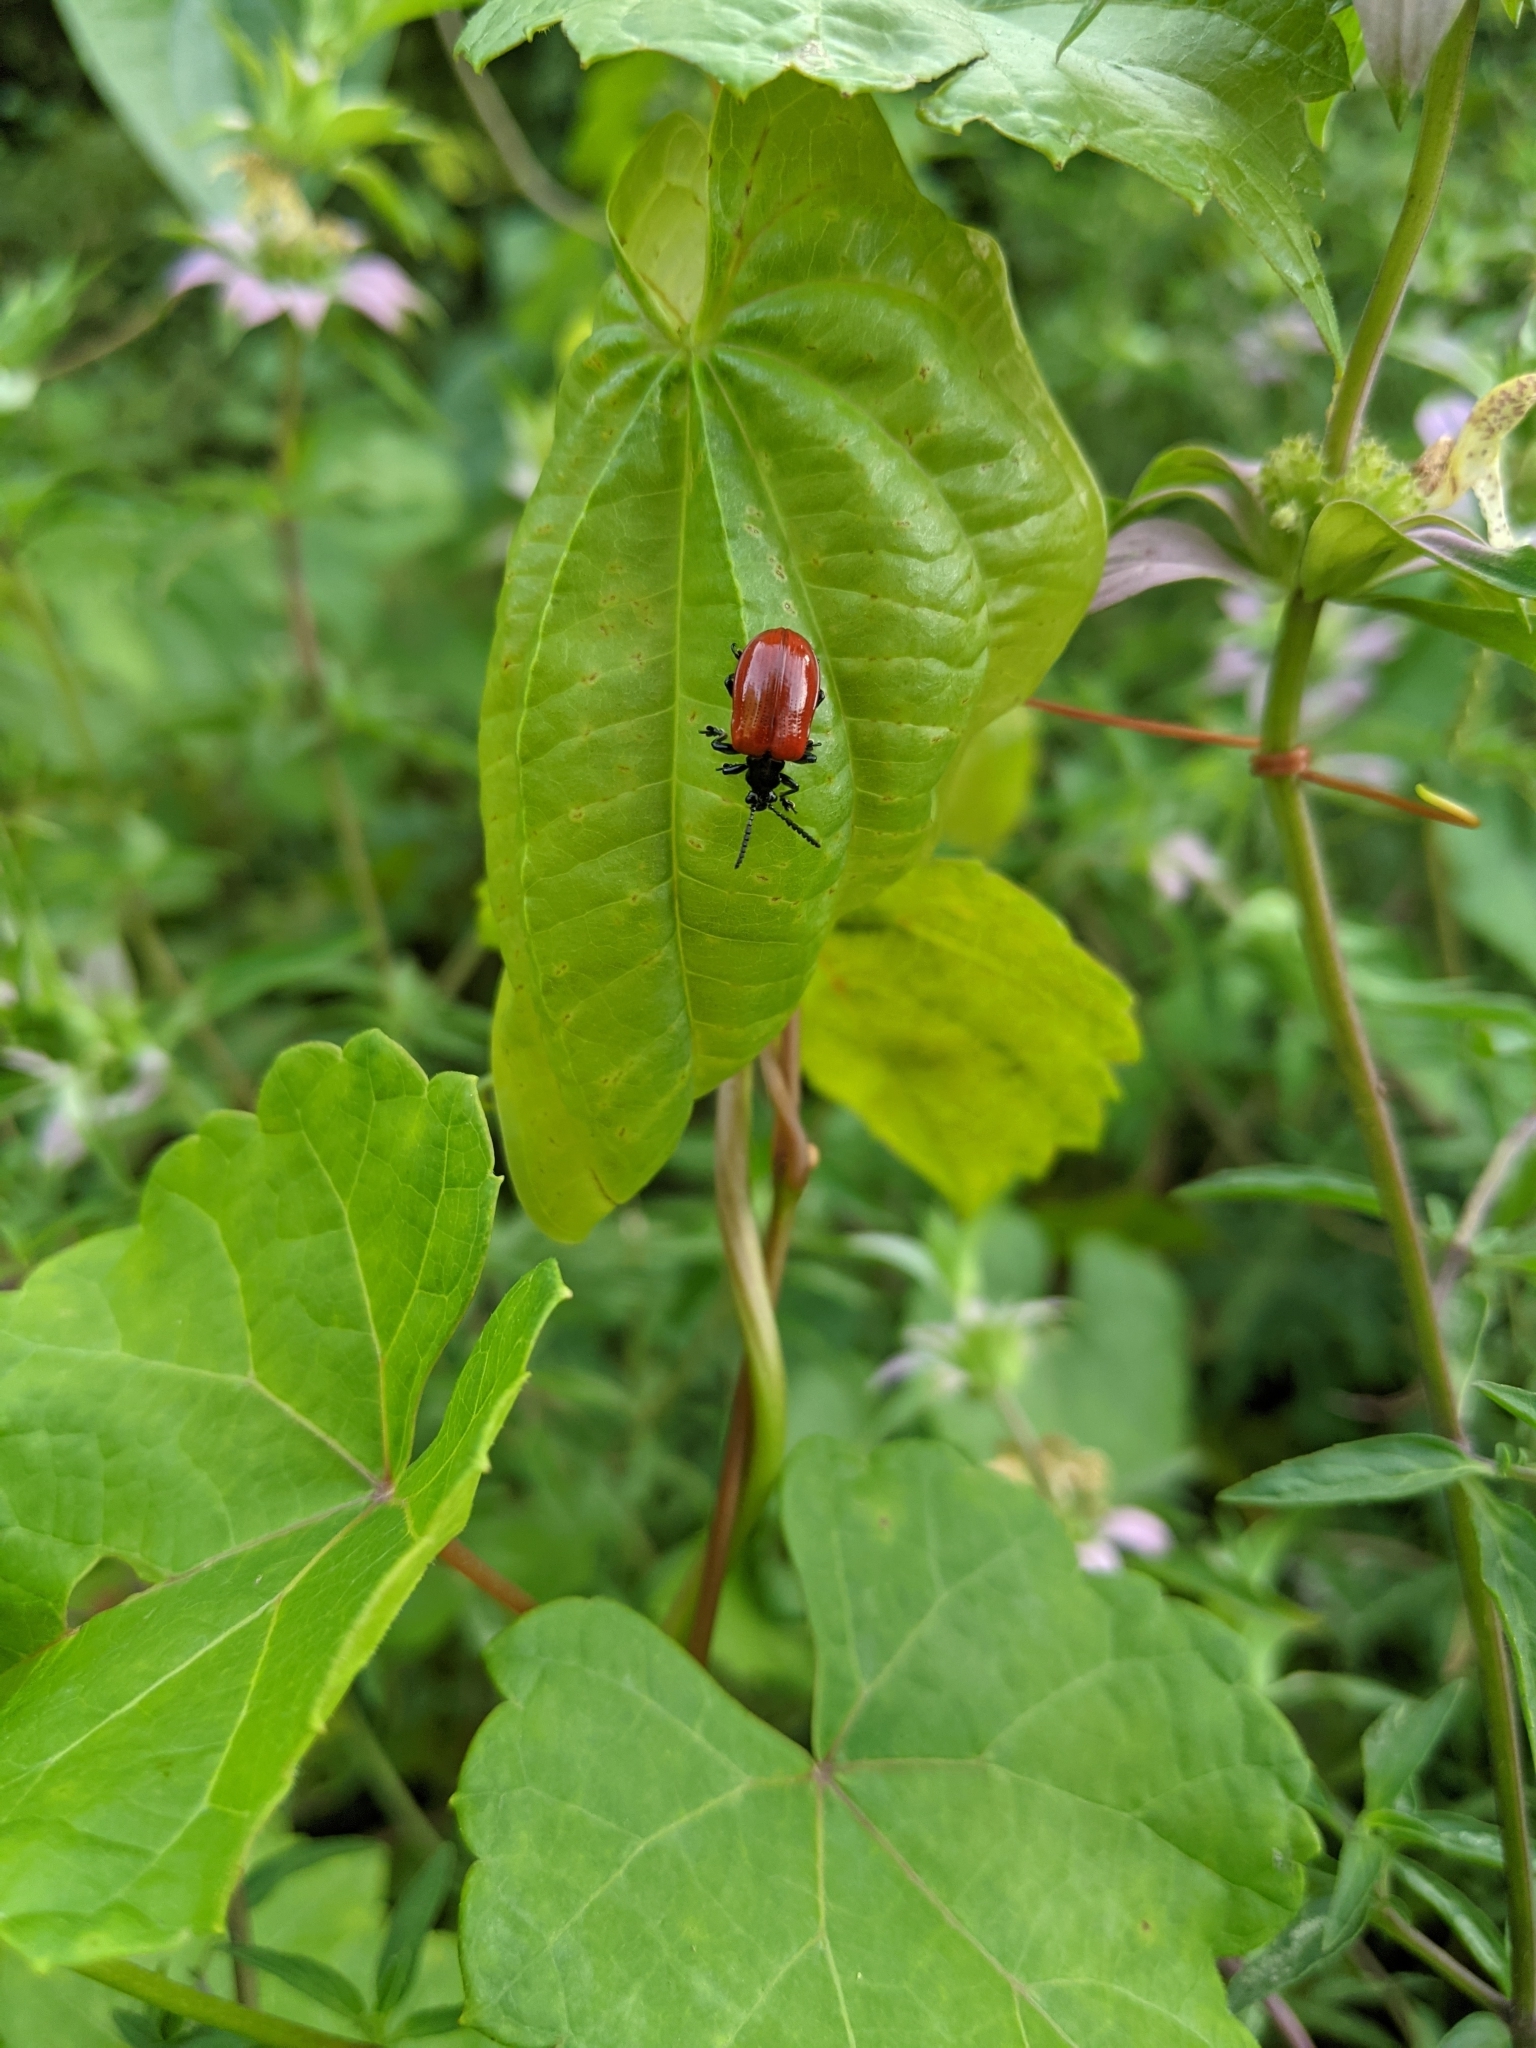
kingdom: Animalia
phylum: Arthropoda
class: Insecta
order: Coleoptera
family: Chrysomelidae
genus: Lilioceris
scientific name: Lilioceris cheni
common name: Leaf beetle
